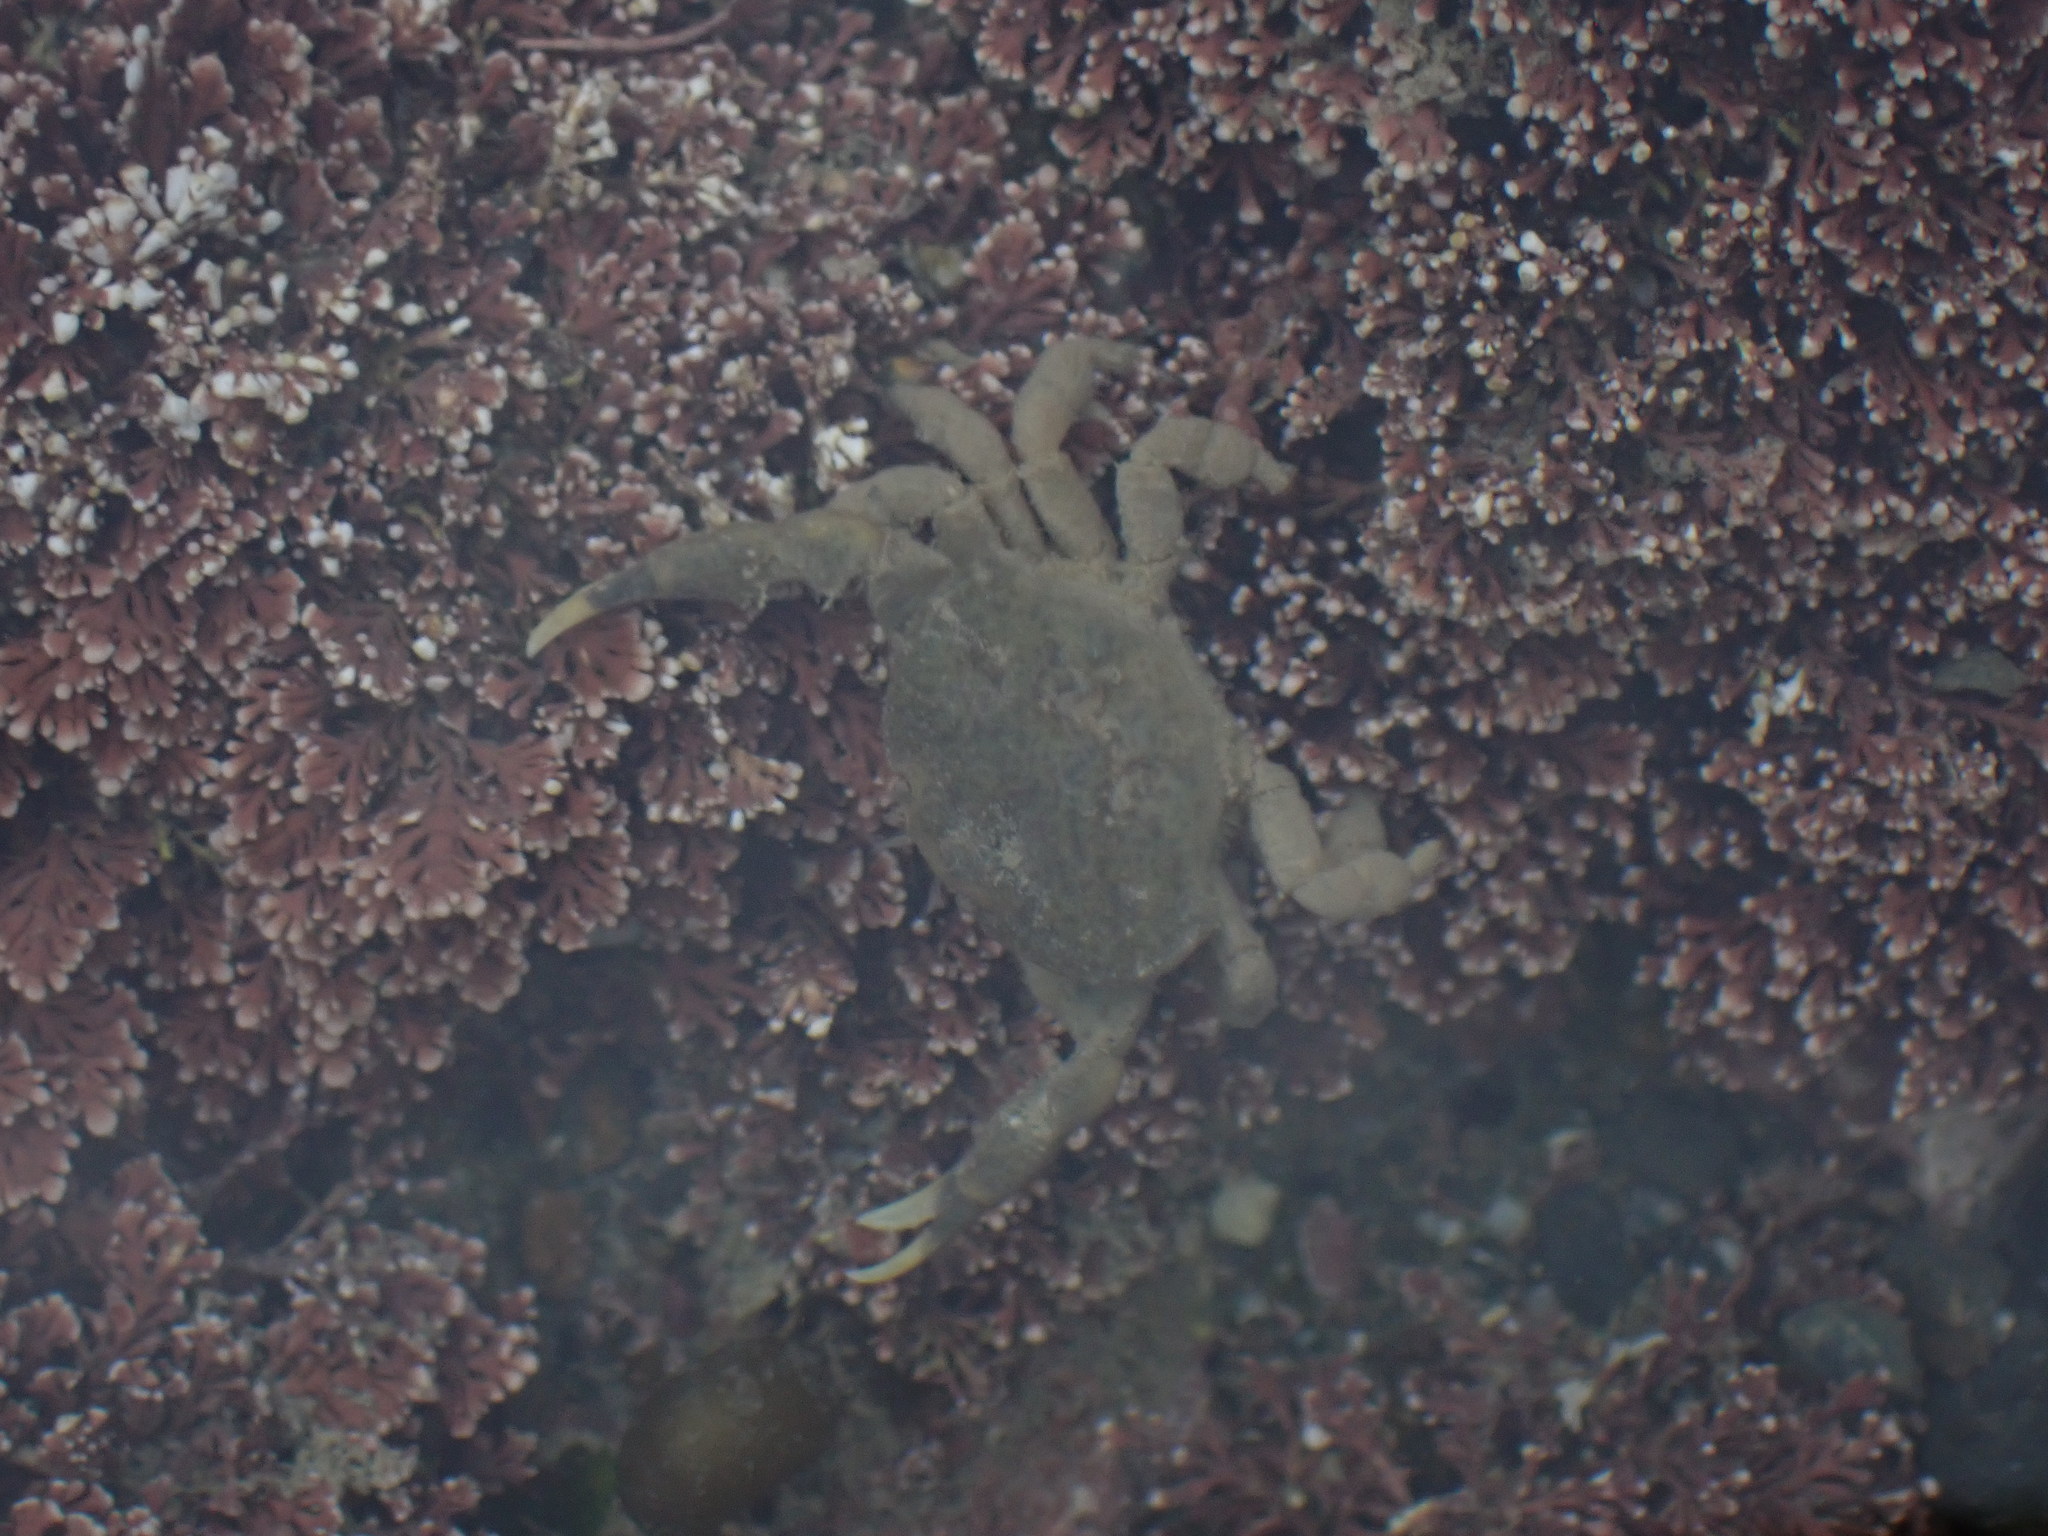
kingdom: Animalia
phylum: Arthropoda
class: Malacostraca
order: Decapoda
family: Heteroziidae
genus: Heterozius
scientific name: Heterozius rotundifrons
